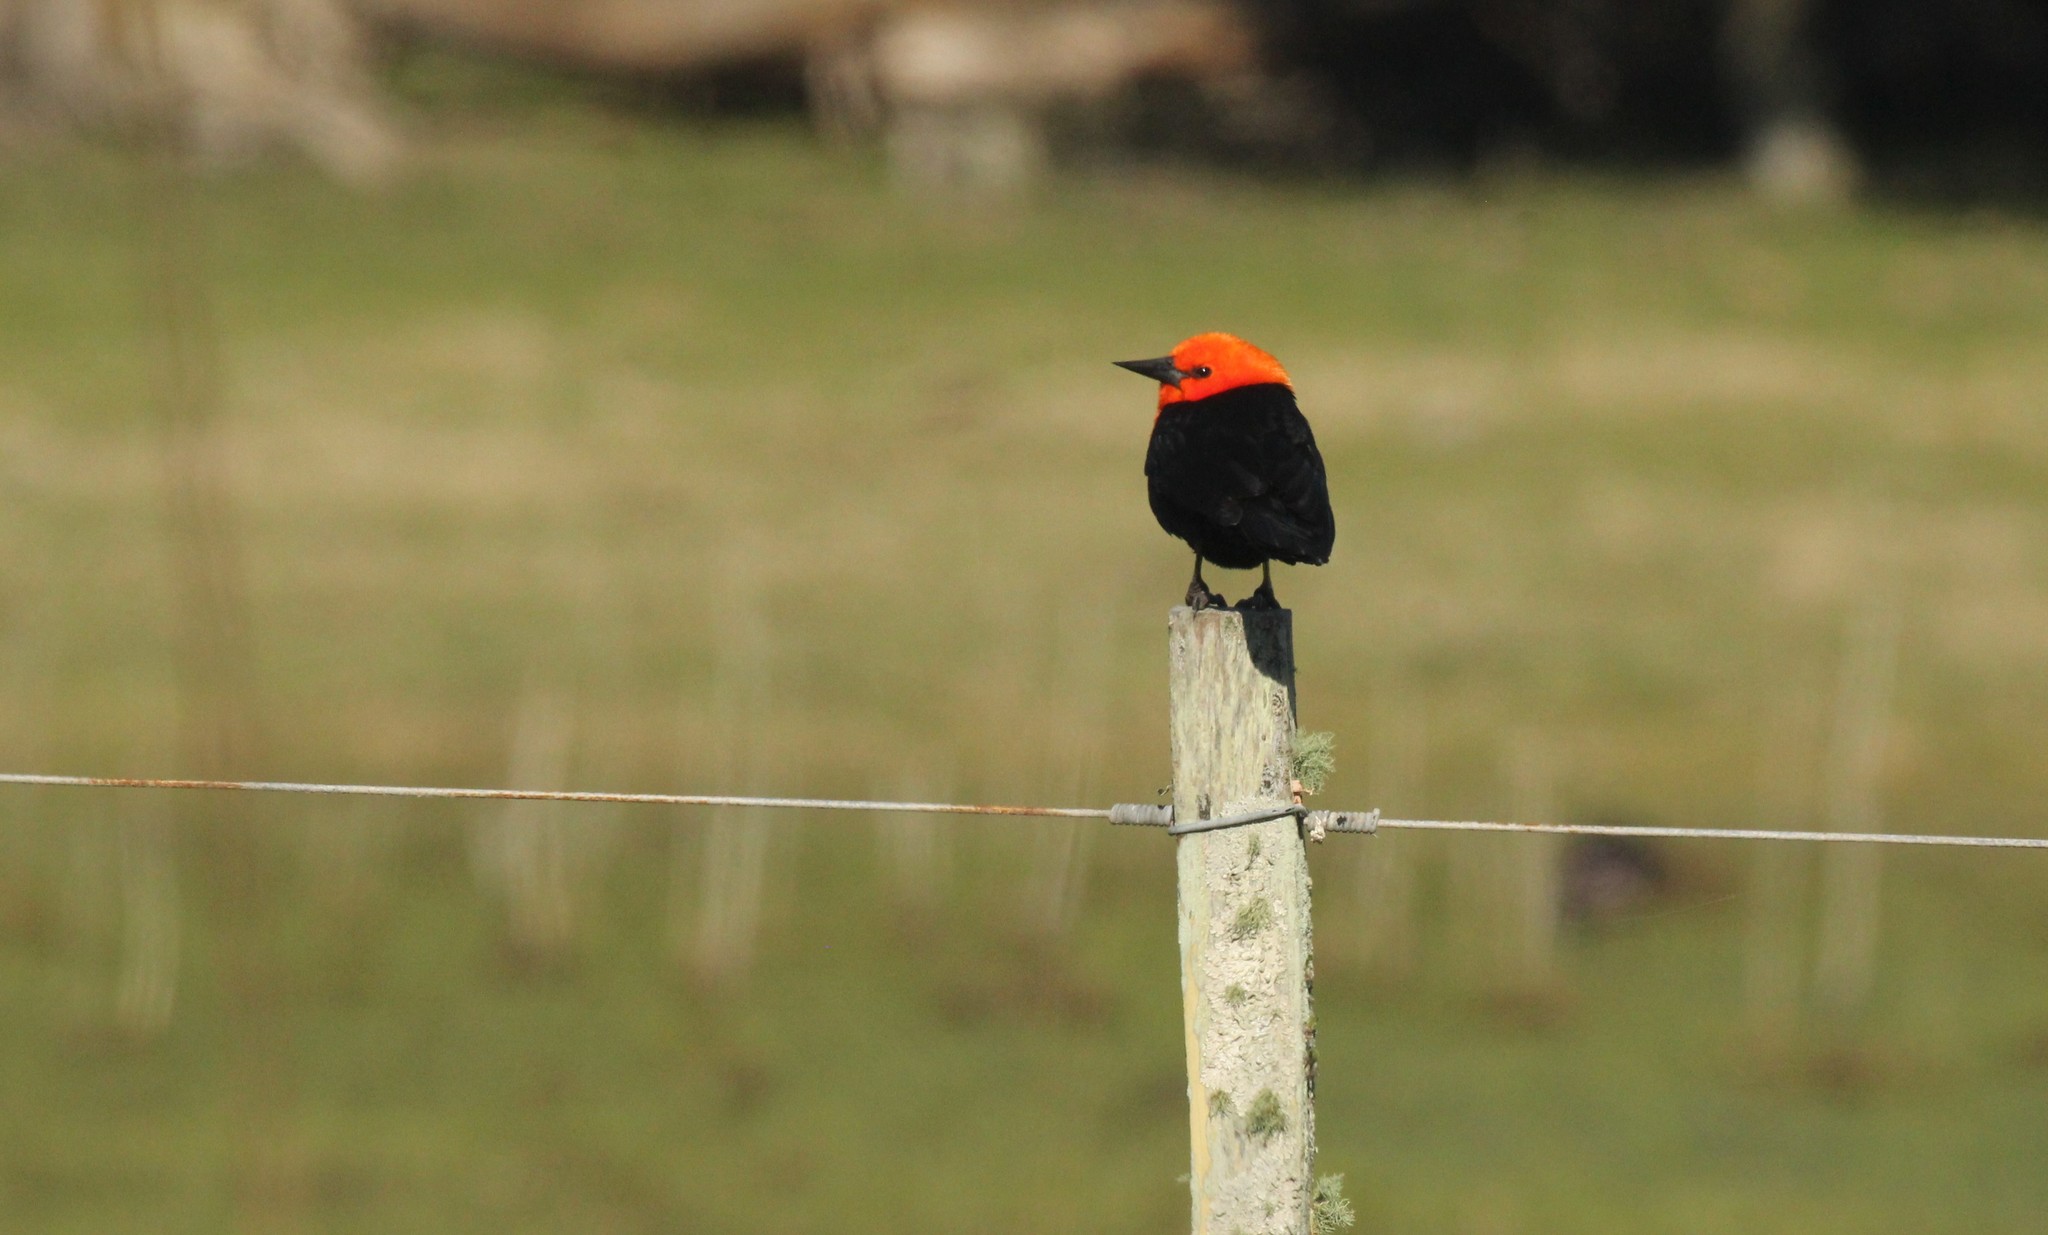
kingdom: Animalia
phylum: Chordata
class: Aves
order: Passeriformes
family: Icteridae
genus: Amblyramphus
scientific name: Amblyramphus holosericeus
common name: Scarlet-headed blackbird
